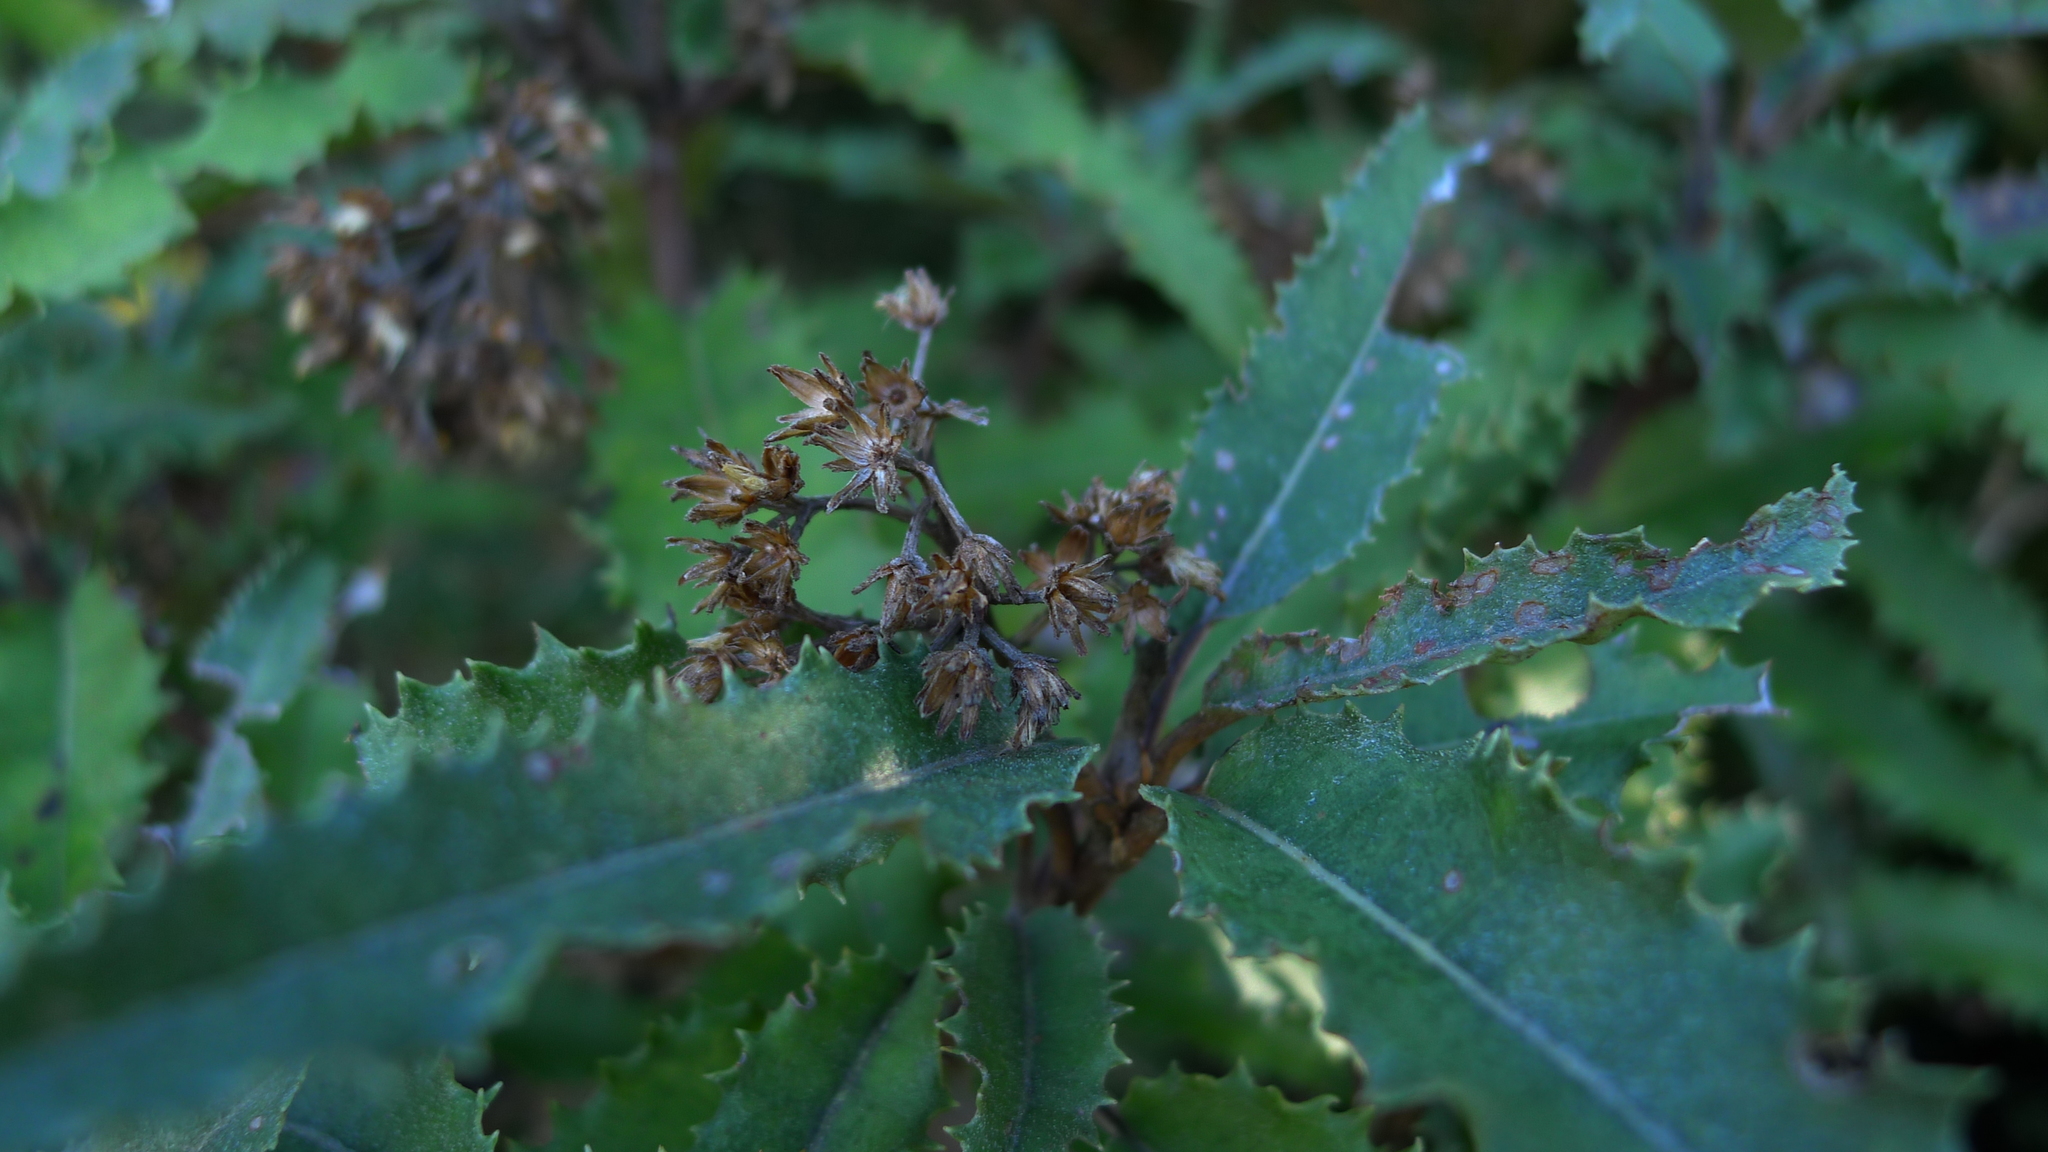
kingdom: Plantae
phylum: Tracheophyta
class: Magnoliopsida
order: Asterales
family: Asteraceae
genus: Olearia
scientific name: Olearia ilicifolia
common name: Maori-holly
